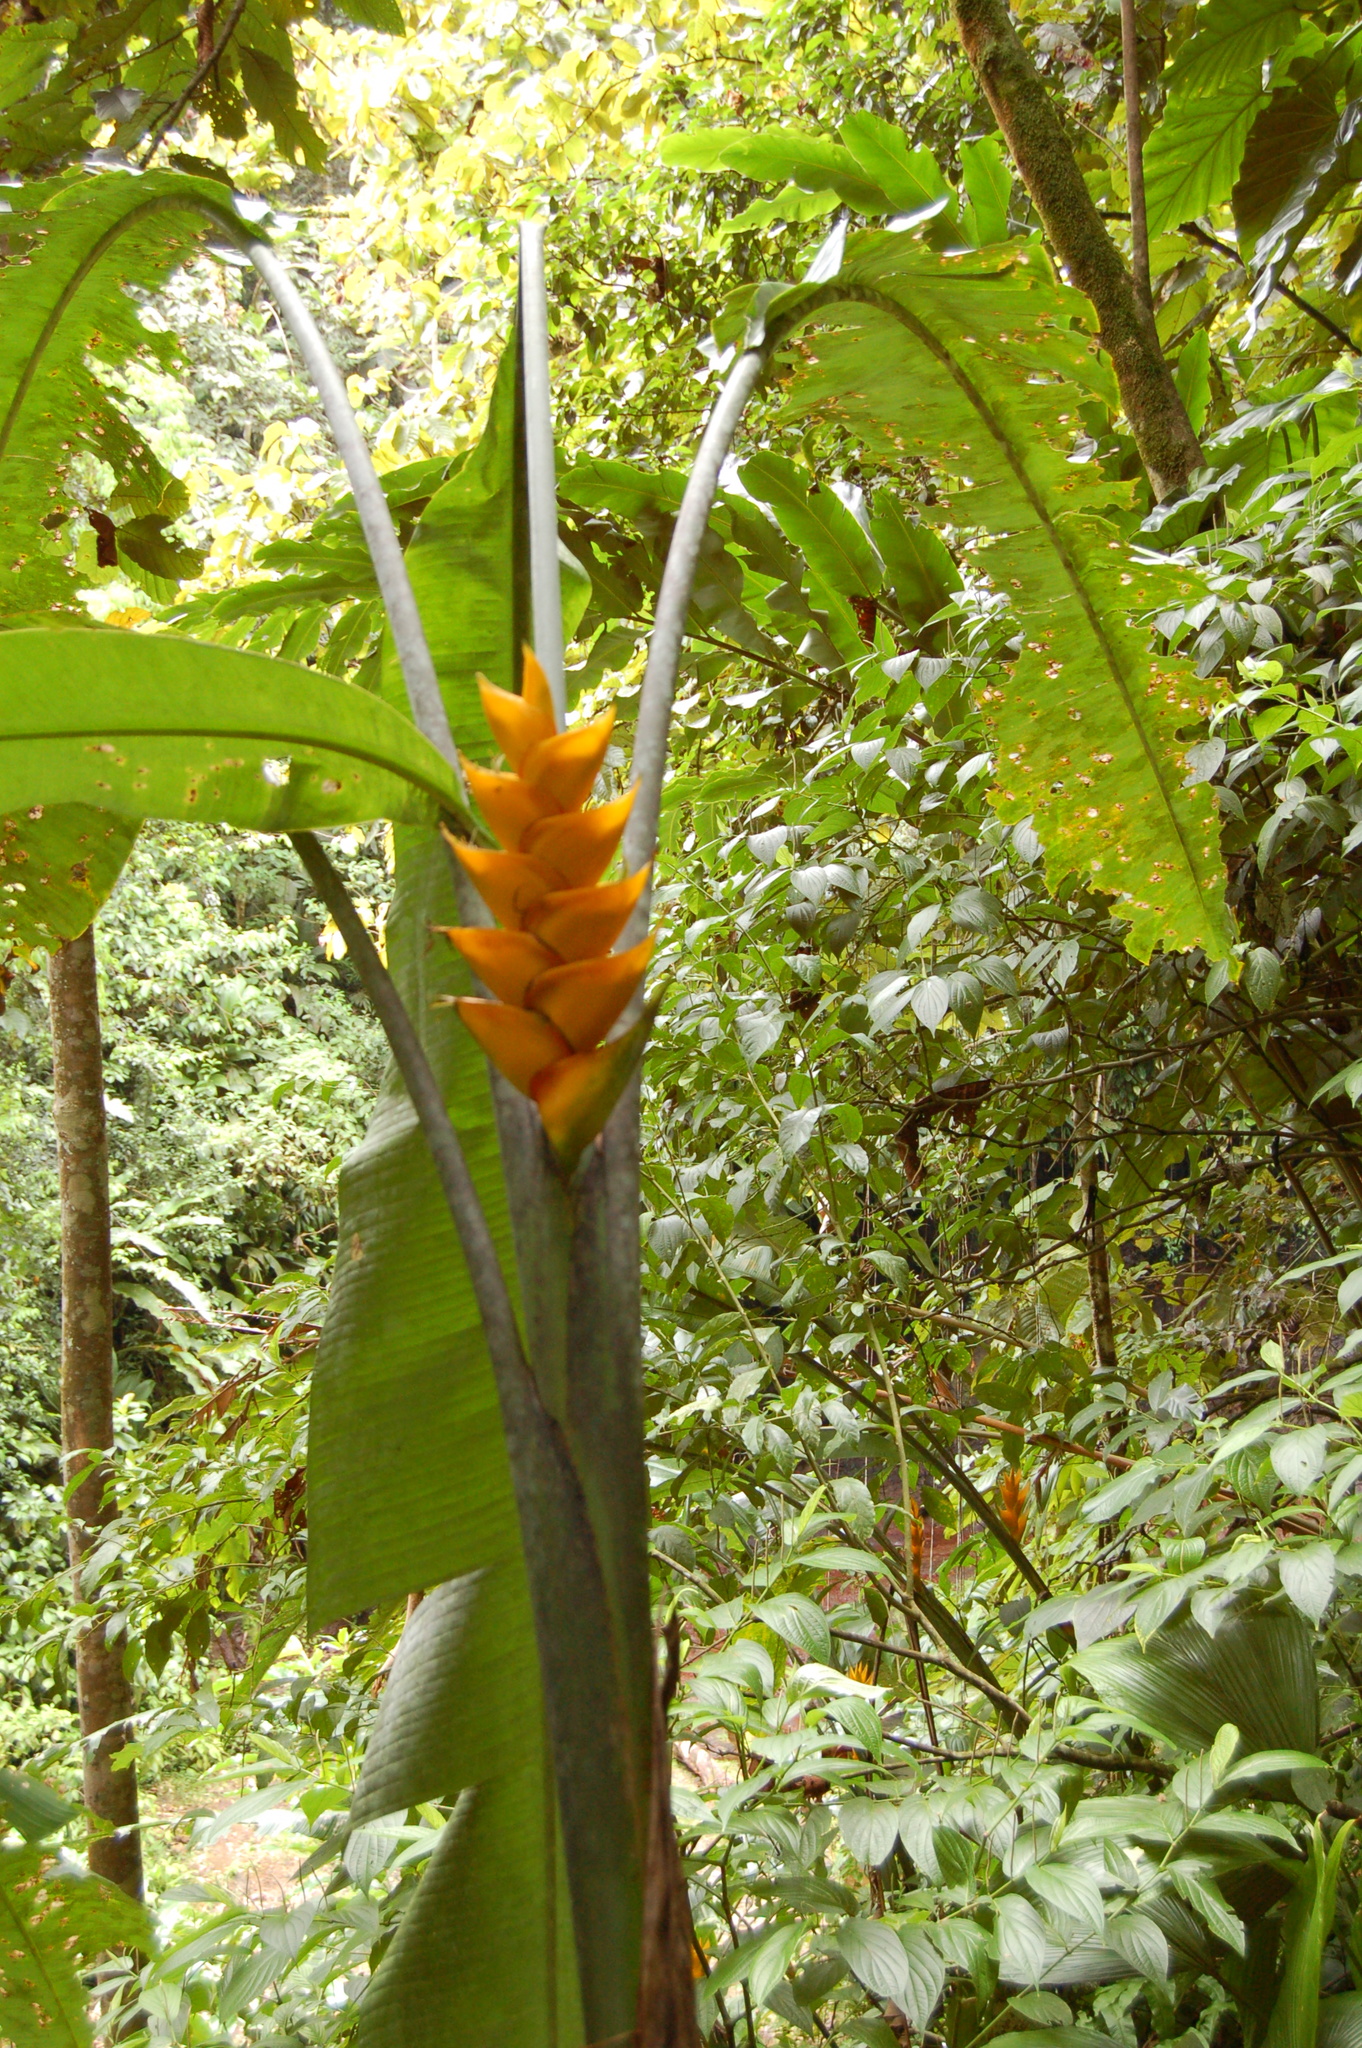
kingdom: Plantae
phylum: Tracheophyta
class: Liliopsida
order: Zingiberales
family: Heliconiaceae
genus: Heliconia
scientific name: Heliconia caribaea
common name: Wild plantain
